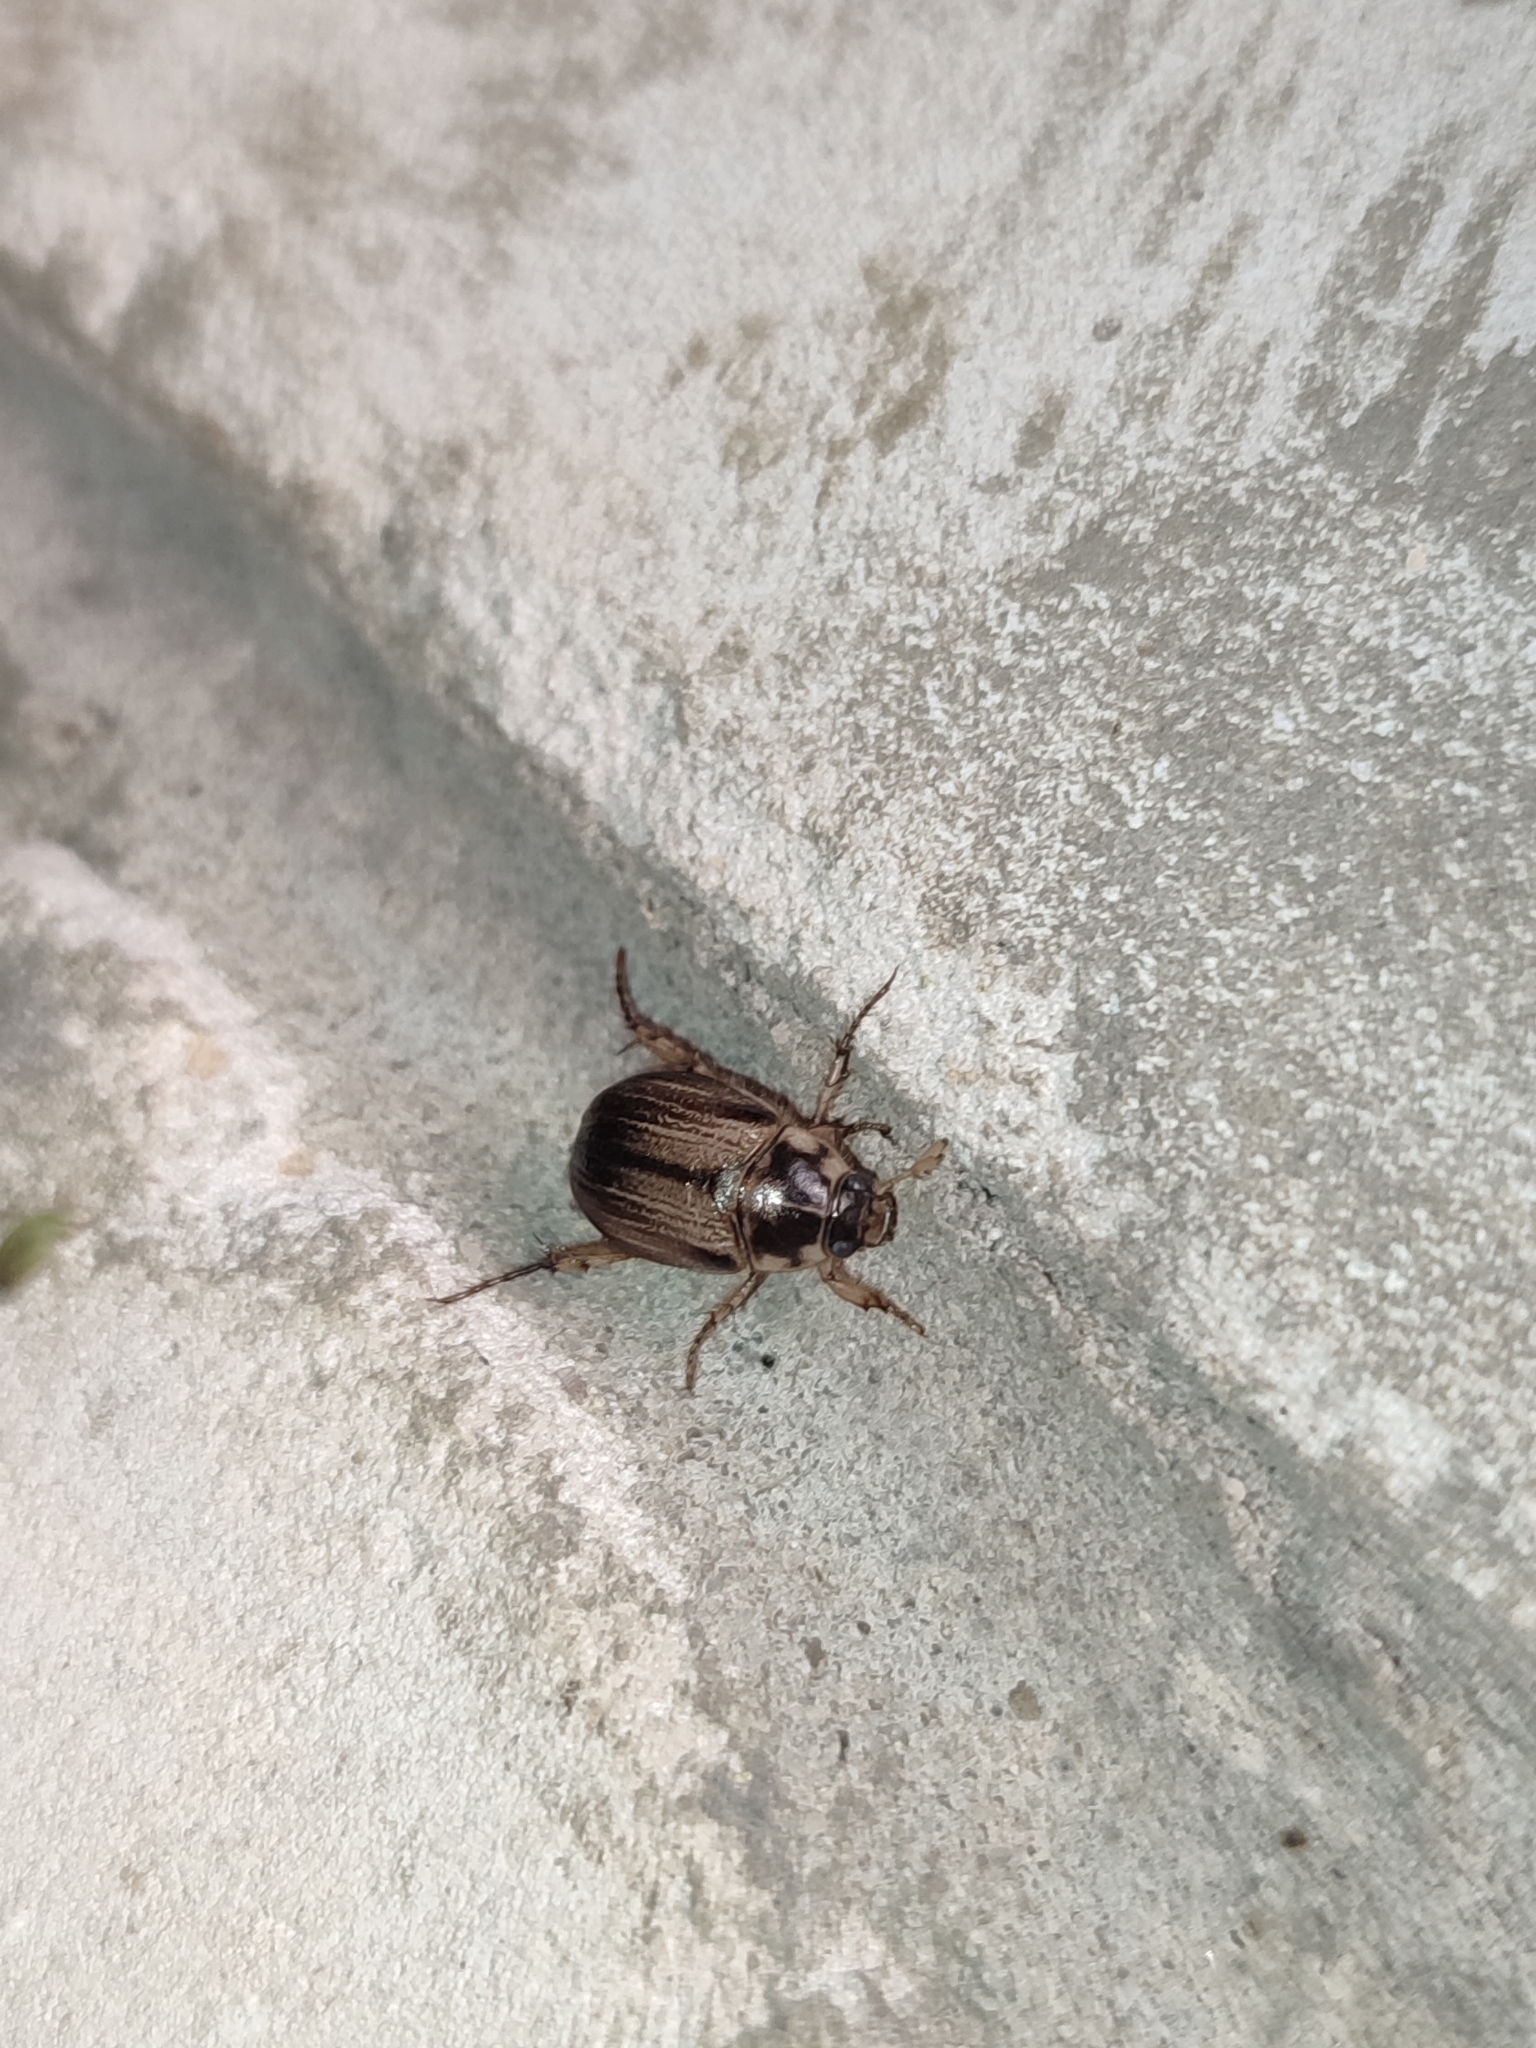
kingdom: Animalia
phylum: Arthropoda
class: Insecta
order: Coleoptera
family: Scarabaeidae
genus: Anomala
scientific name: Anomala errans
